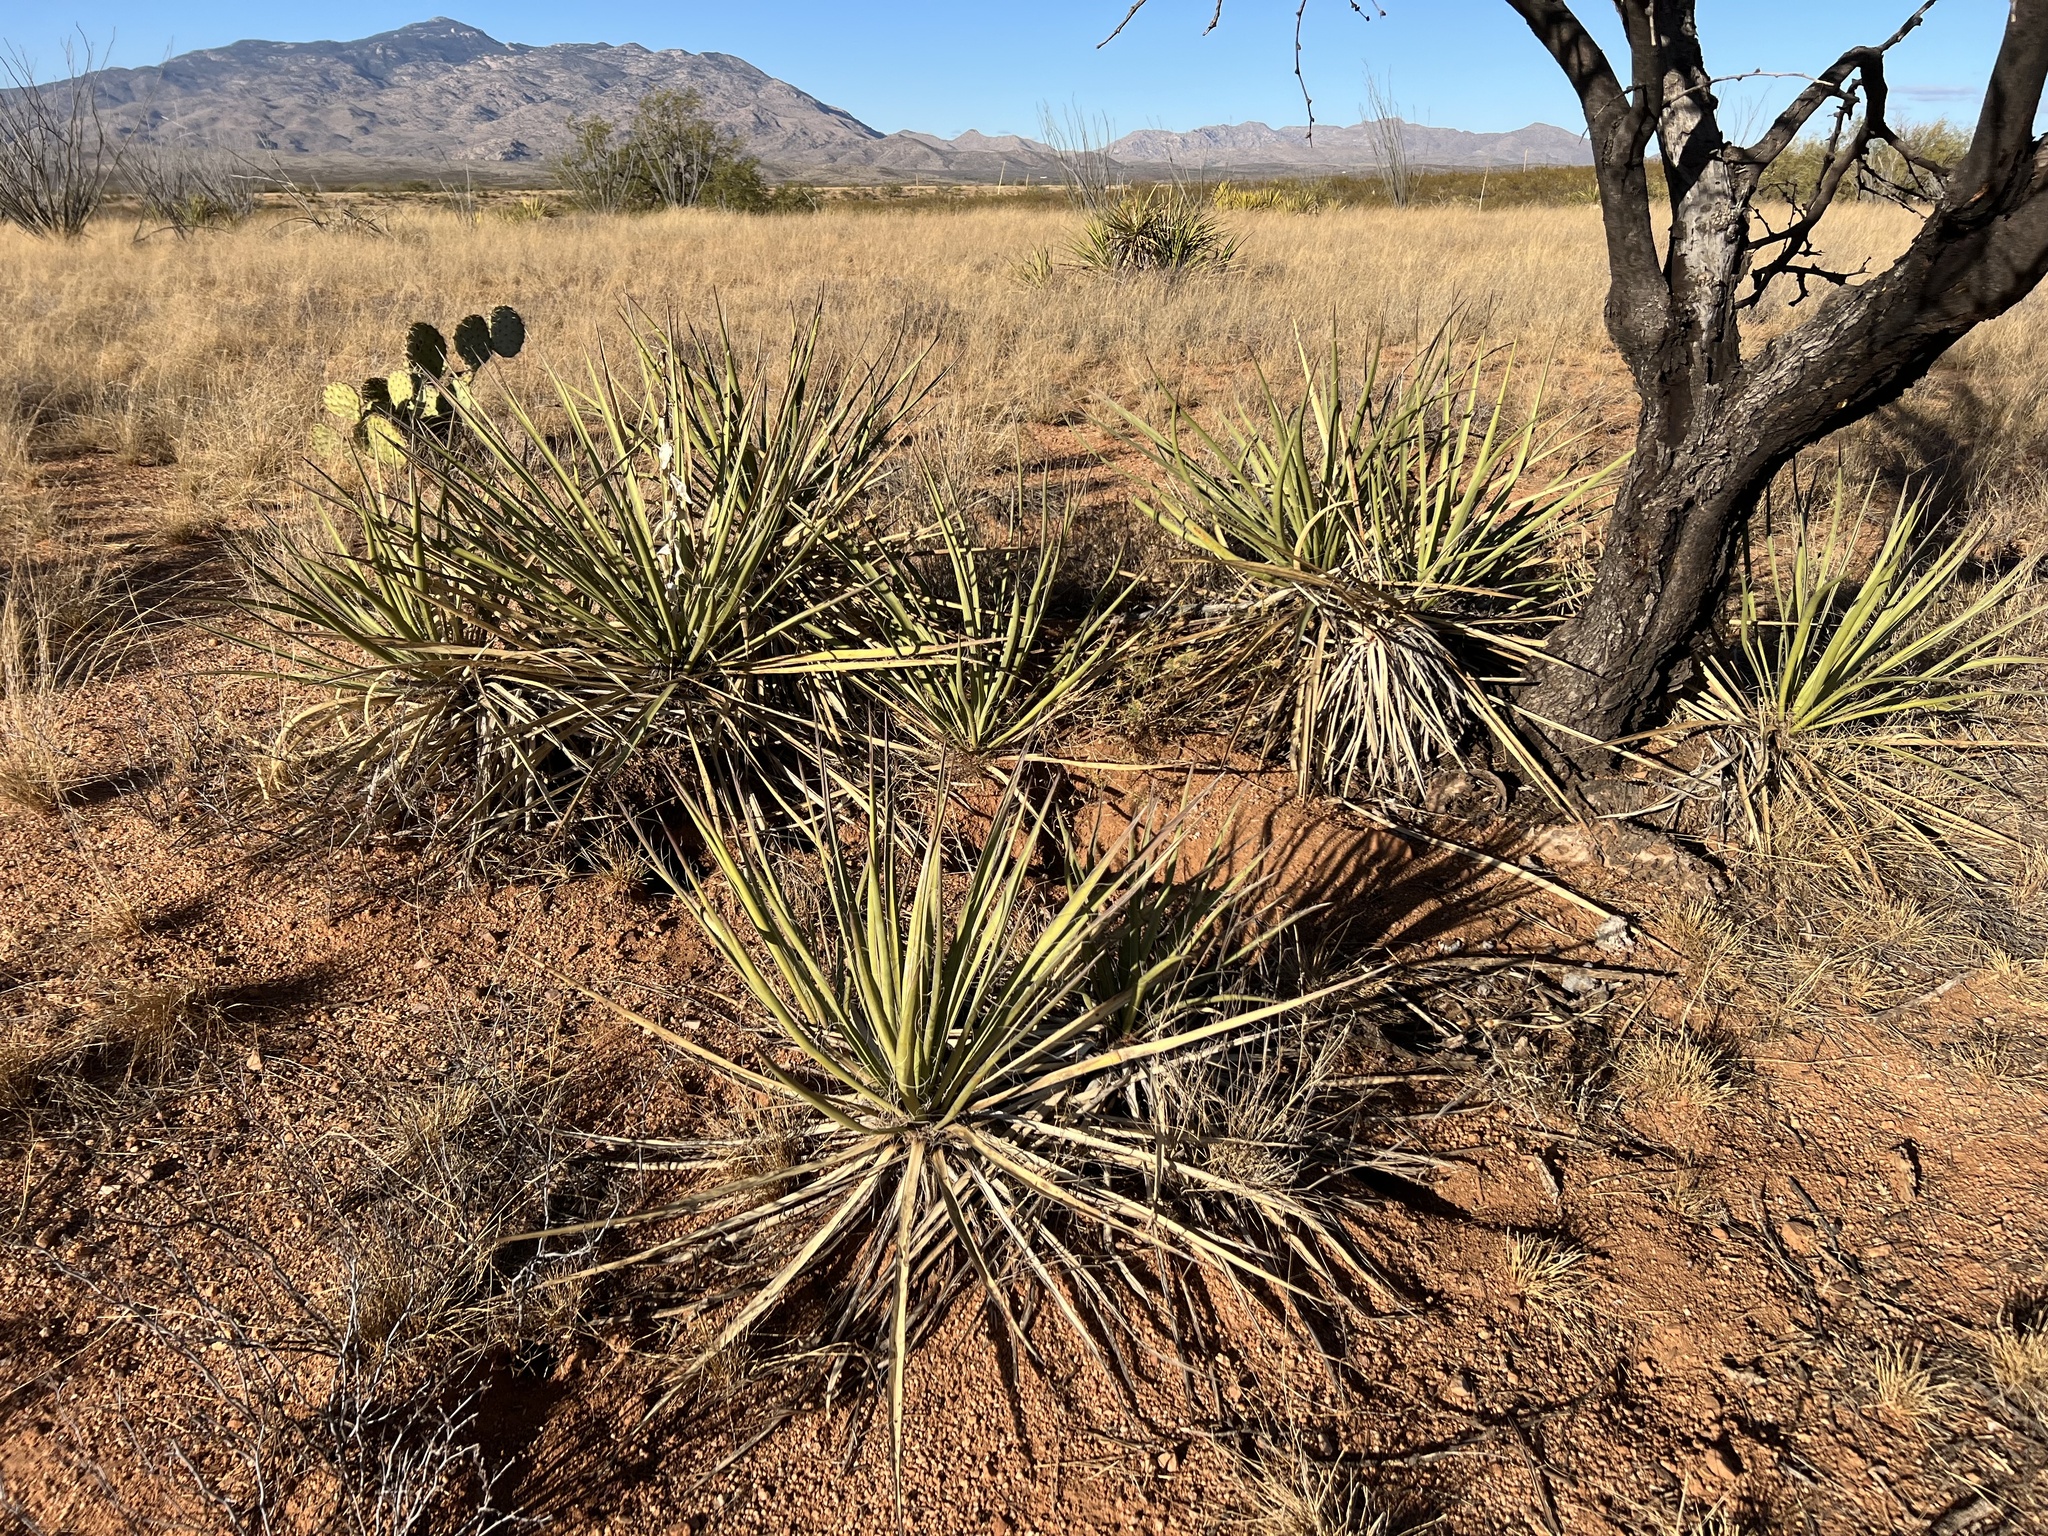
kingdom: Plantae
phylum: Tracheophyta
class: Liliopsida
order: Asparagales
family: Asparagaceae
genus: Yucca
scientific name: Yucca baccata
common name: Banana yucca
